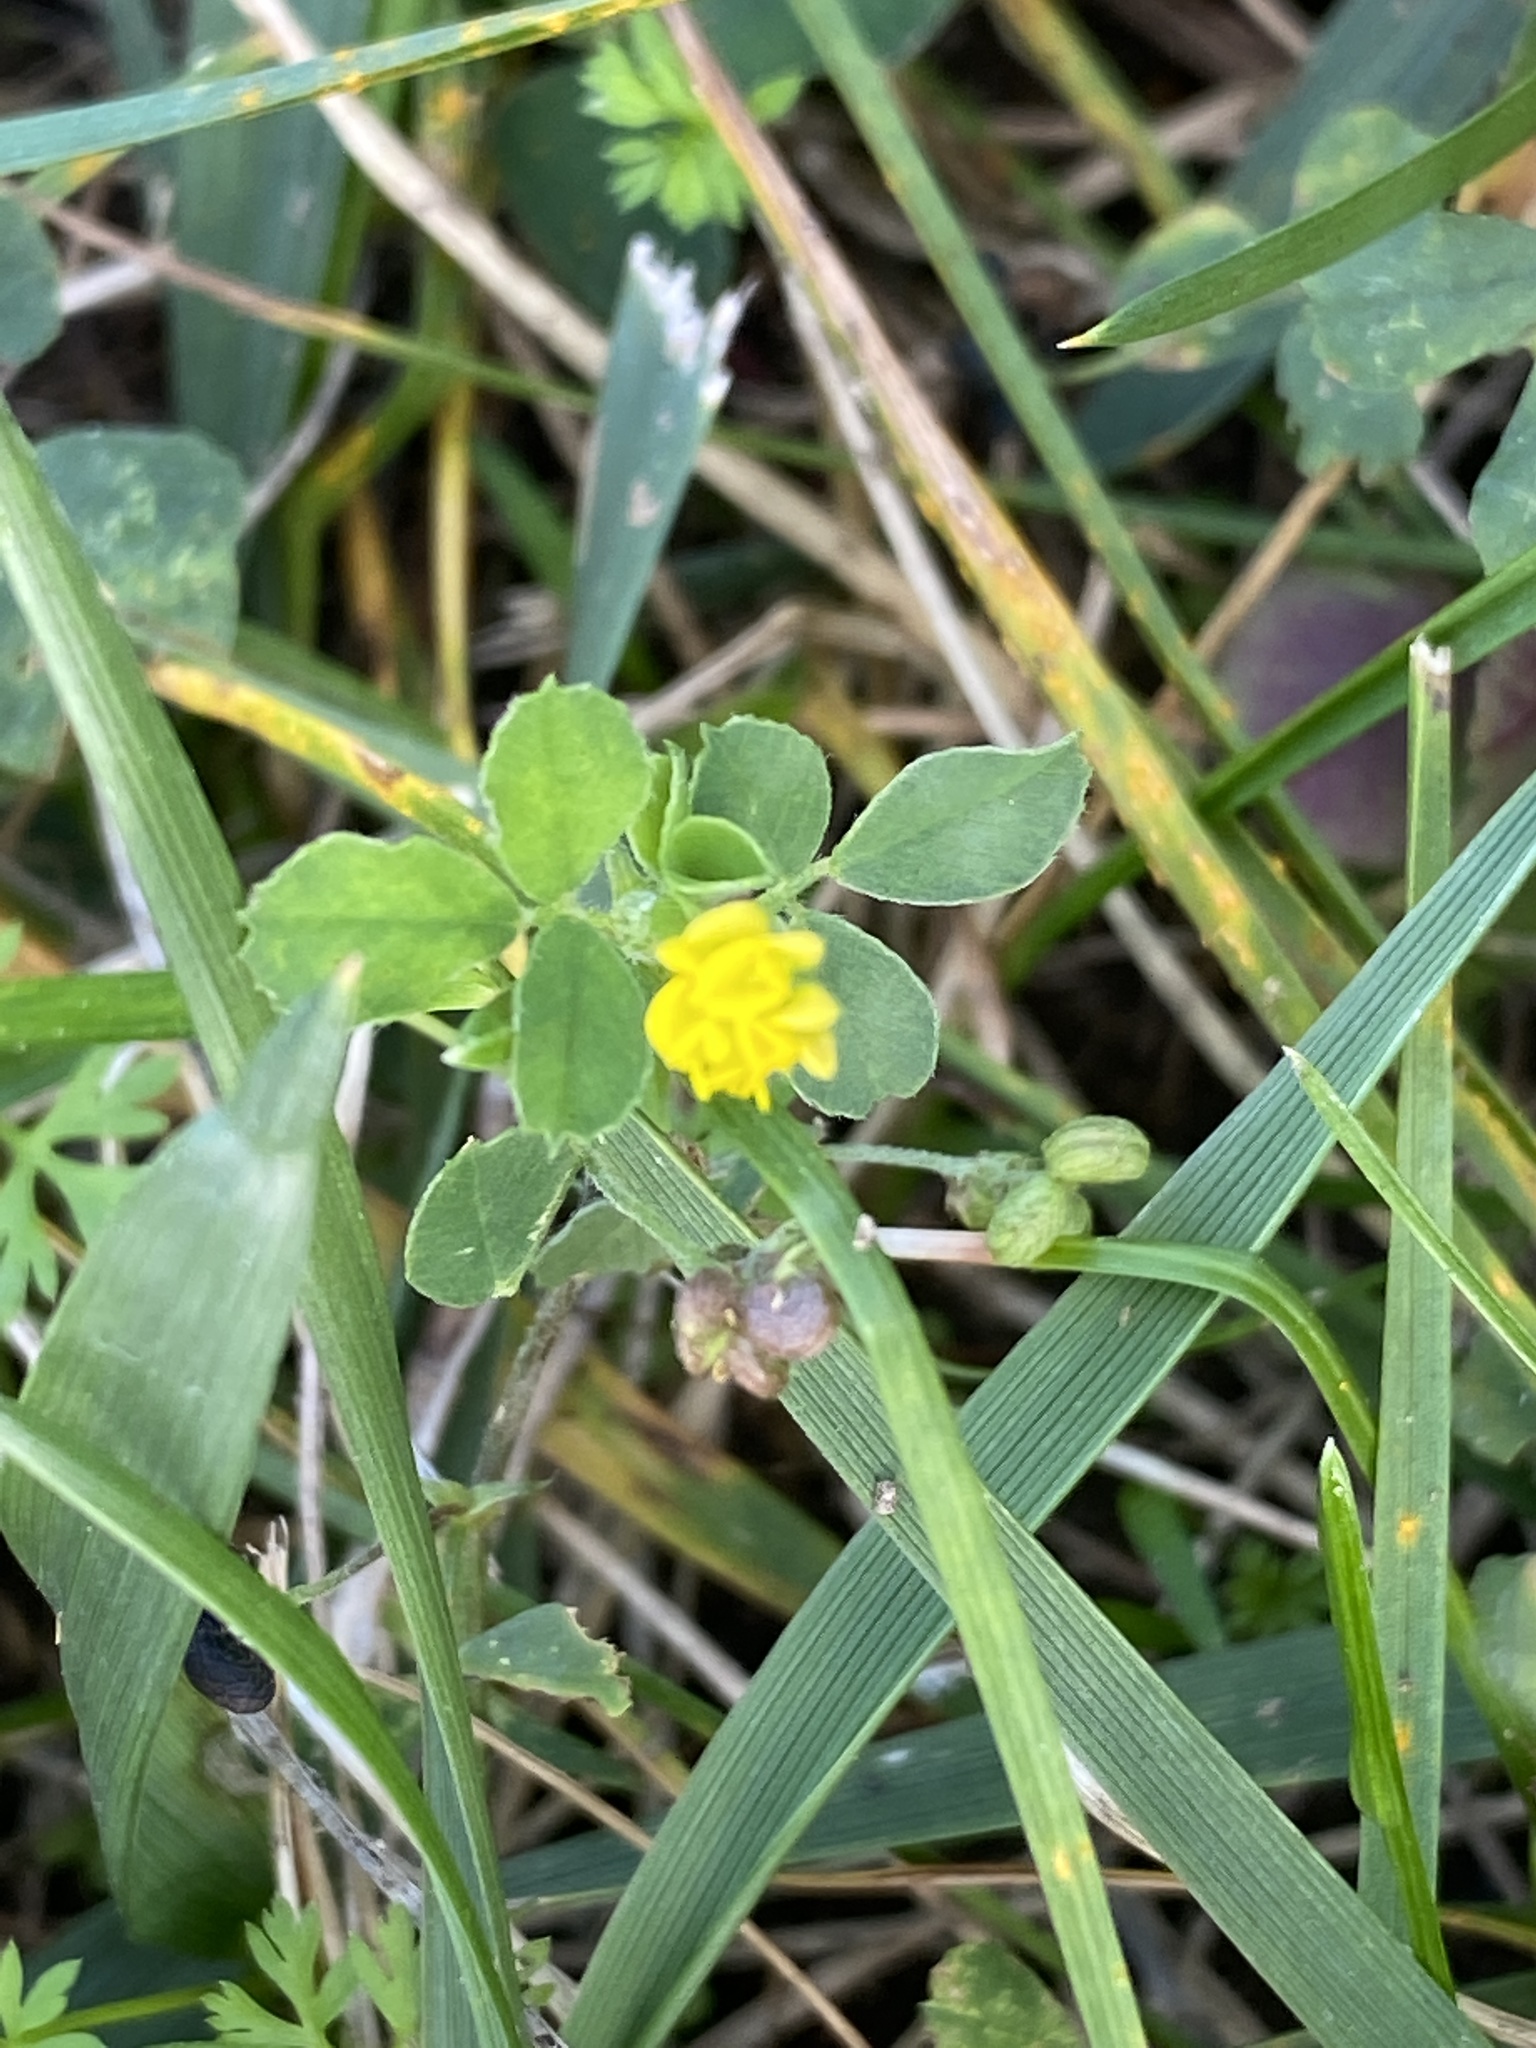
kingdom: Plantae
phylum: Tracheophyta
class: Magnoliopsida
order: Fabales
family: Fabaceae
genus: Medicago
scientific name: Medicago lupulina
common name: Black medick
